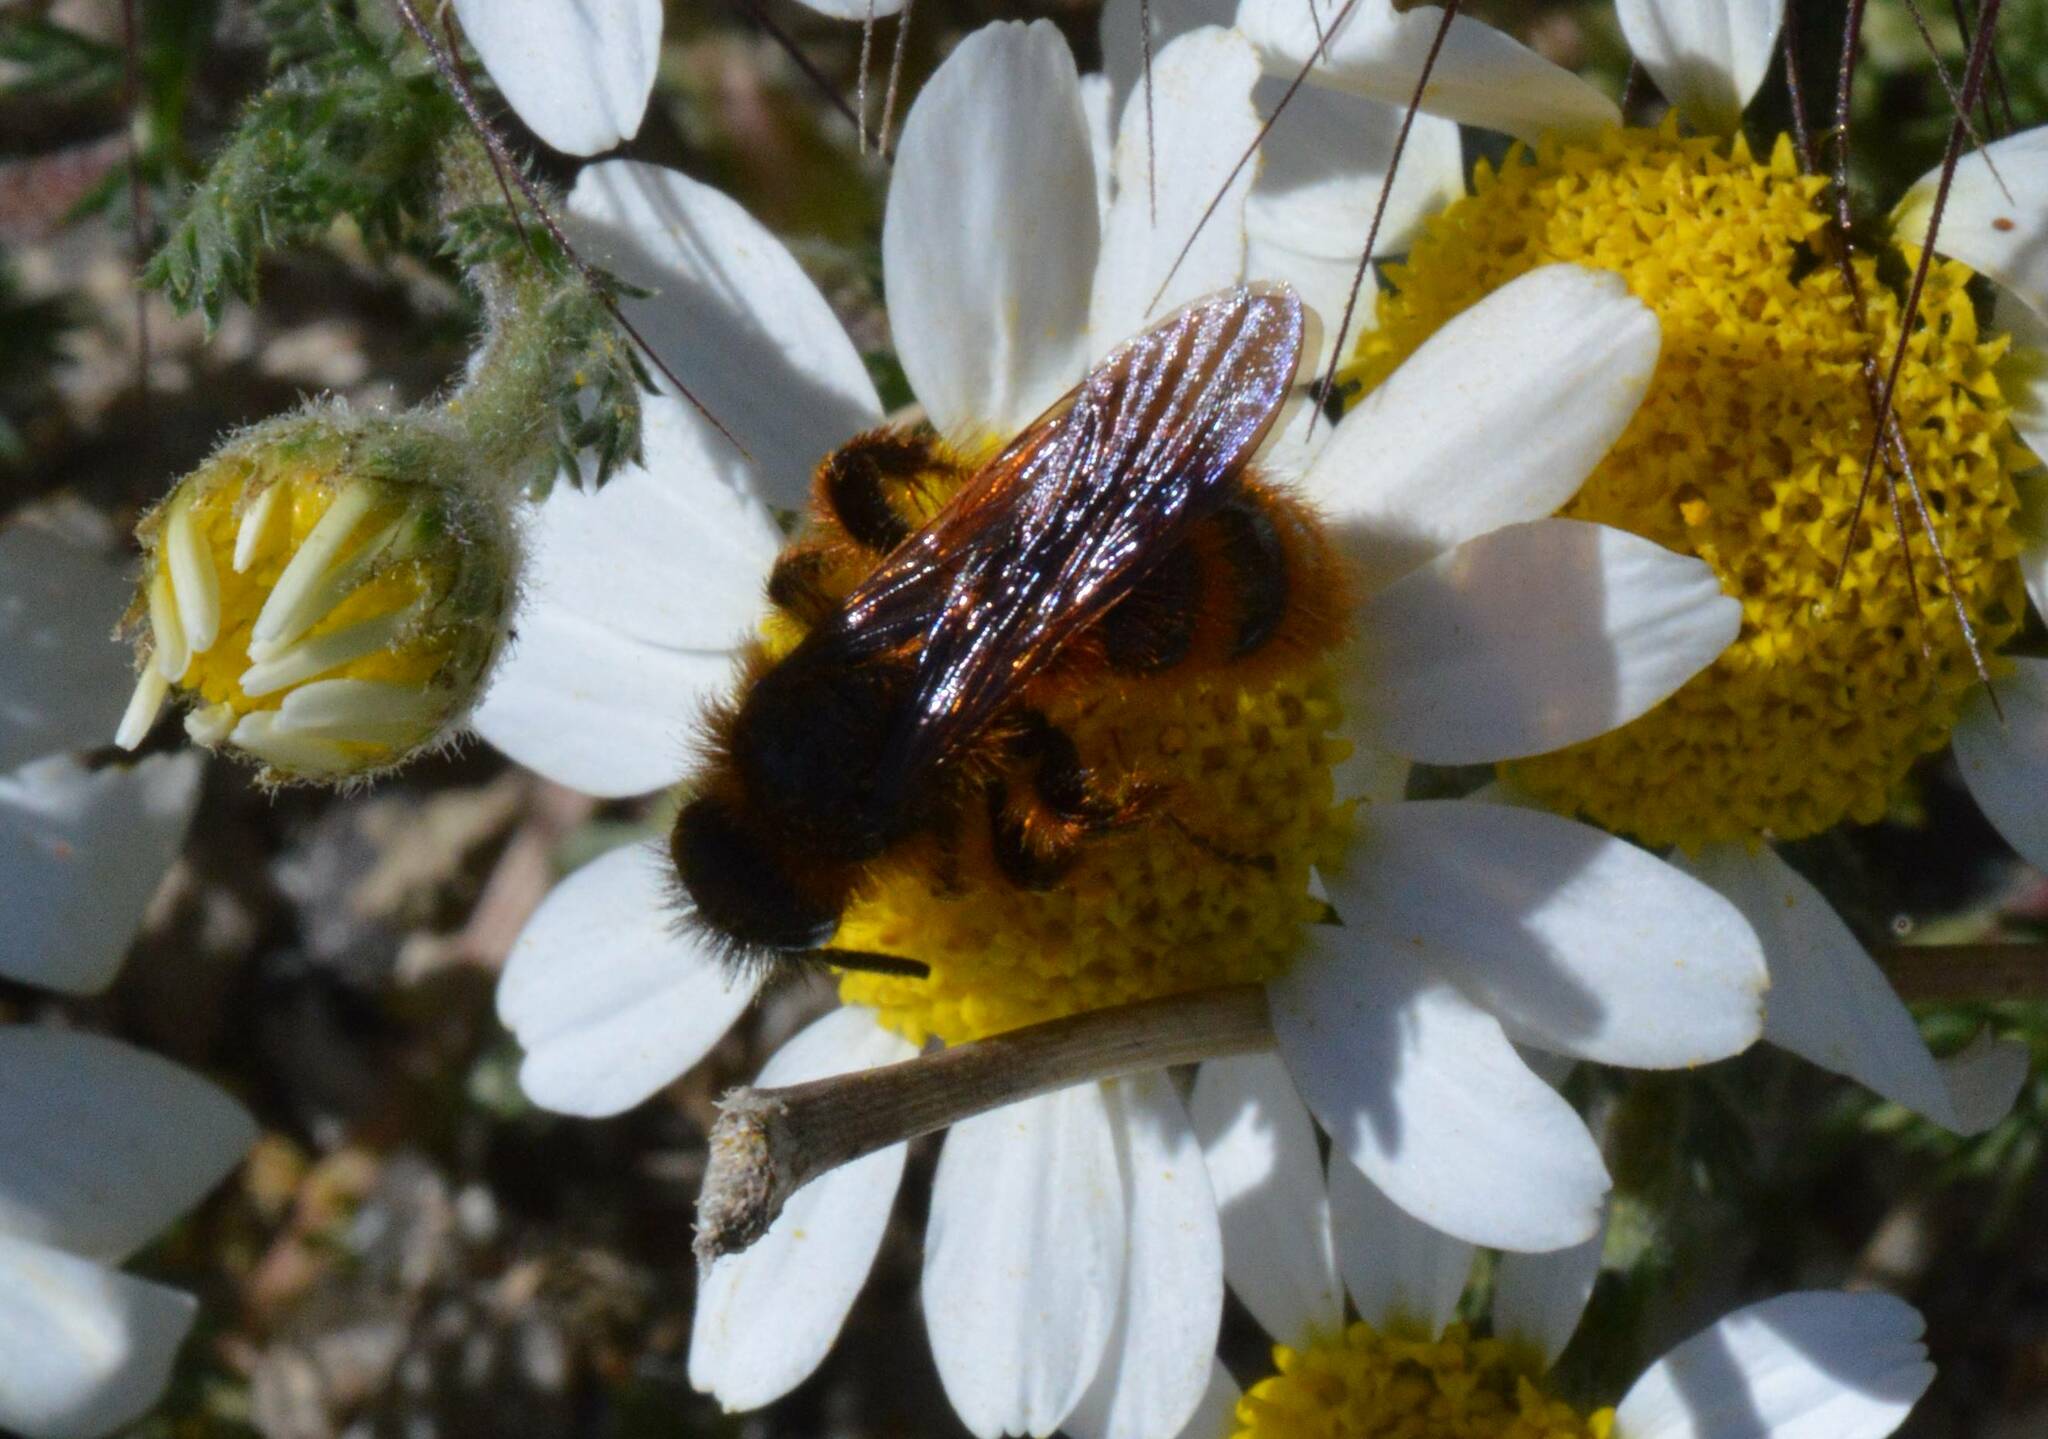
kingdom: Animalia
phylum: Arthropoda
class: Insecta
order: Hymenoptera
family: Scoliidae
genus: Dasyscolia
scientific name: Dasyscolia ciliata
